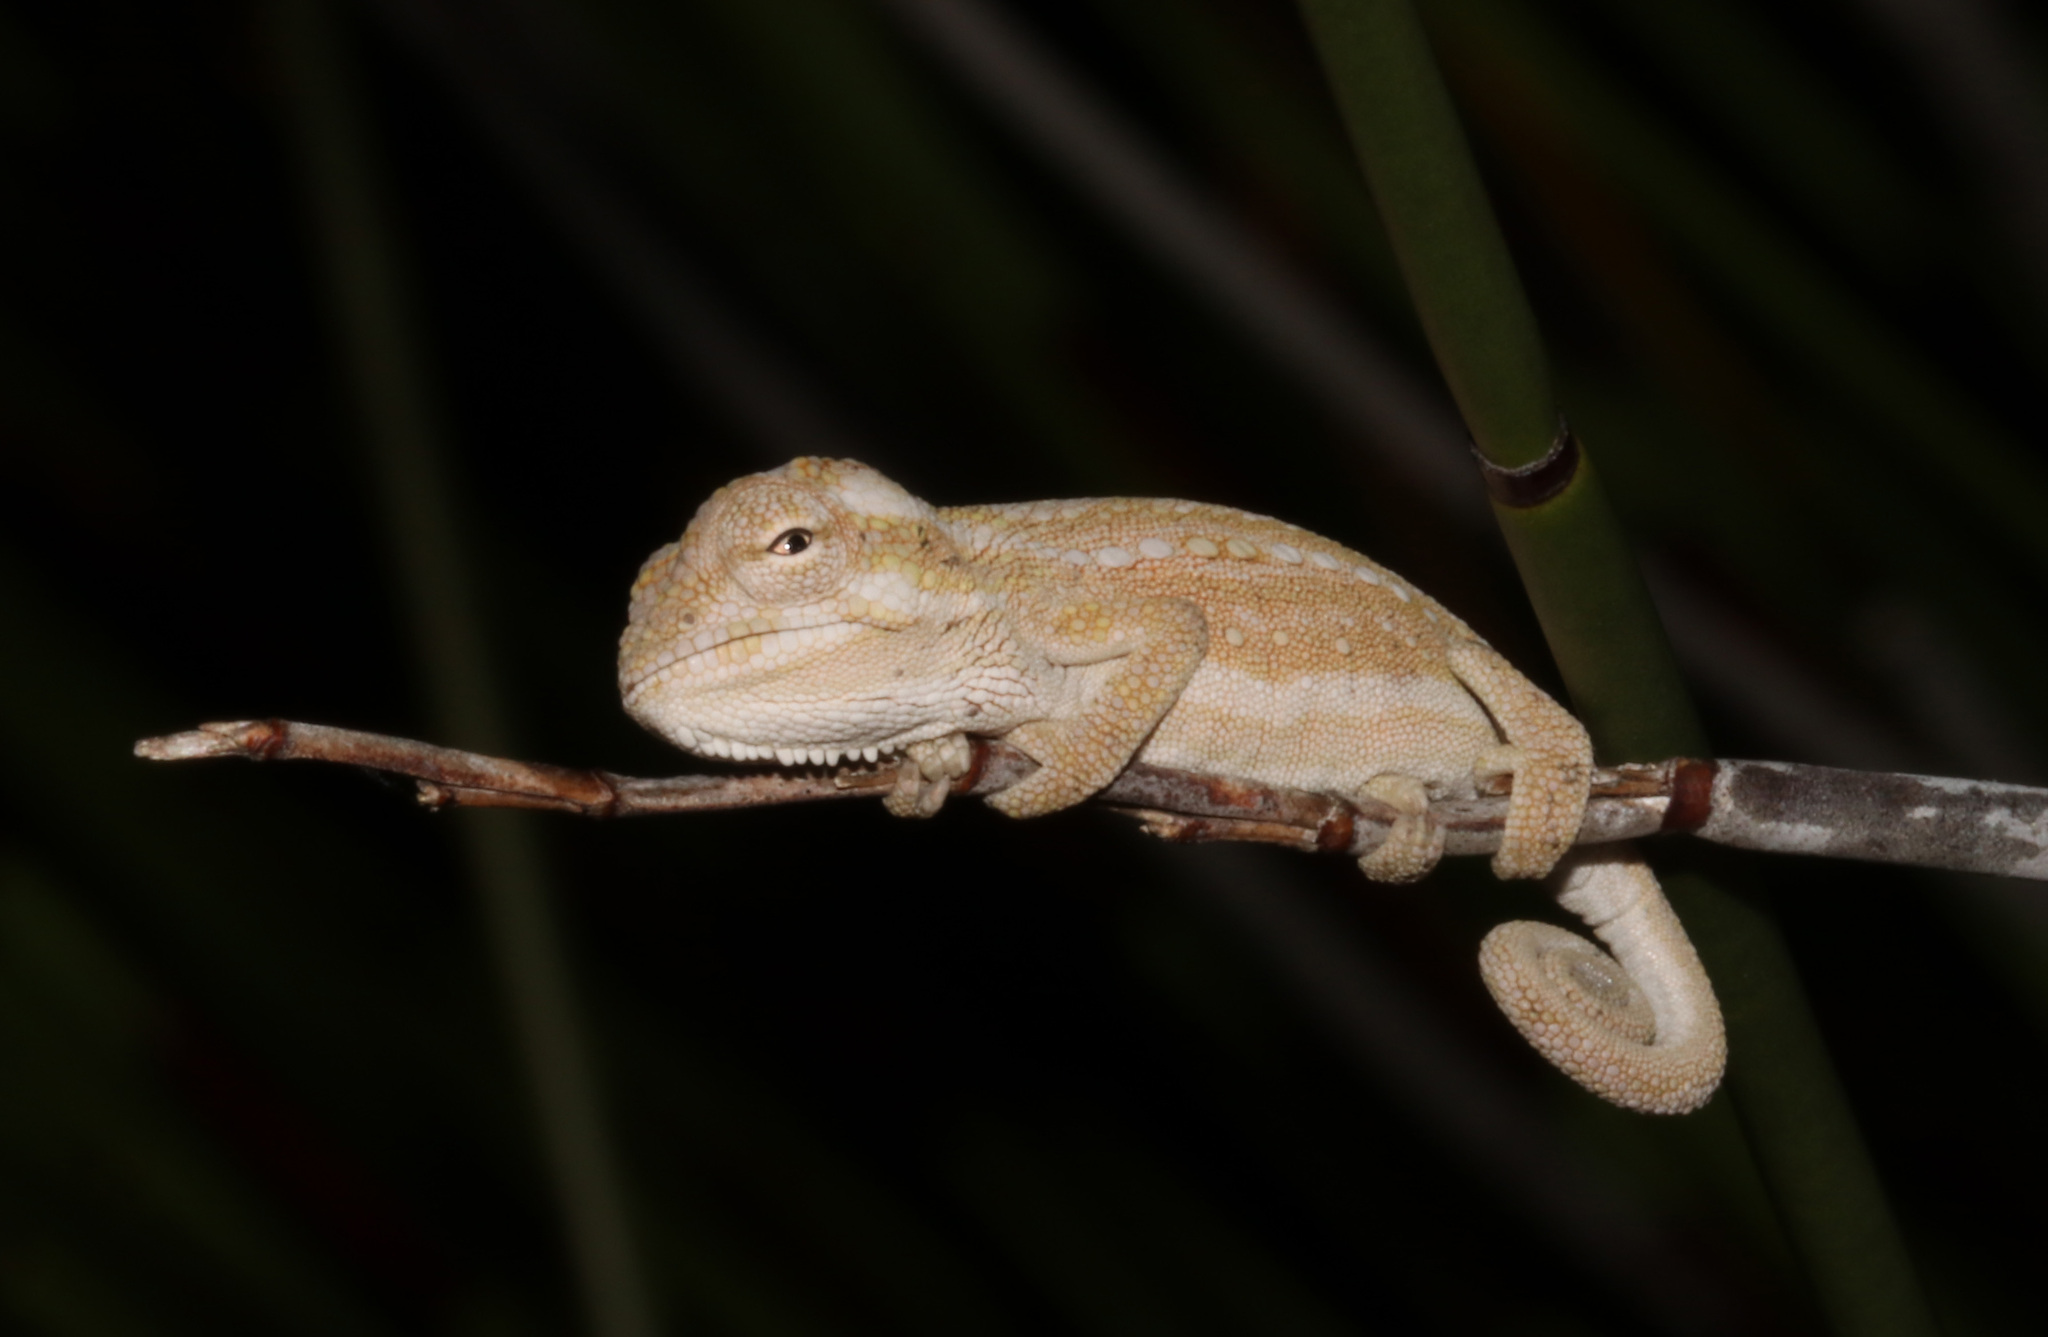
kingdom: Animalia
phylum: Chordata
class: Squamata
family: Chamaeleonidae
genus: Bradypodion
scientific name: Bradypodion pumilum
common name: Cape dwarf chameleon
